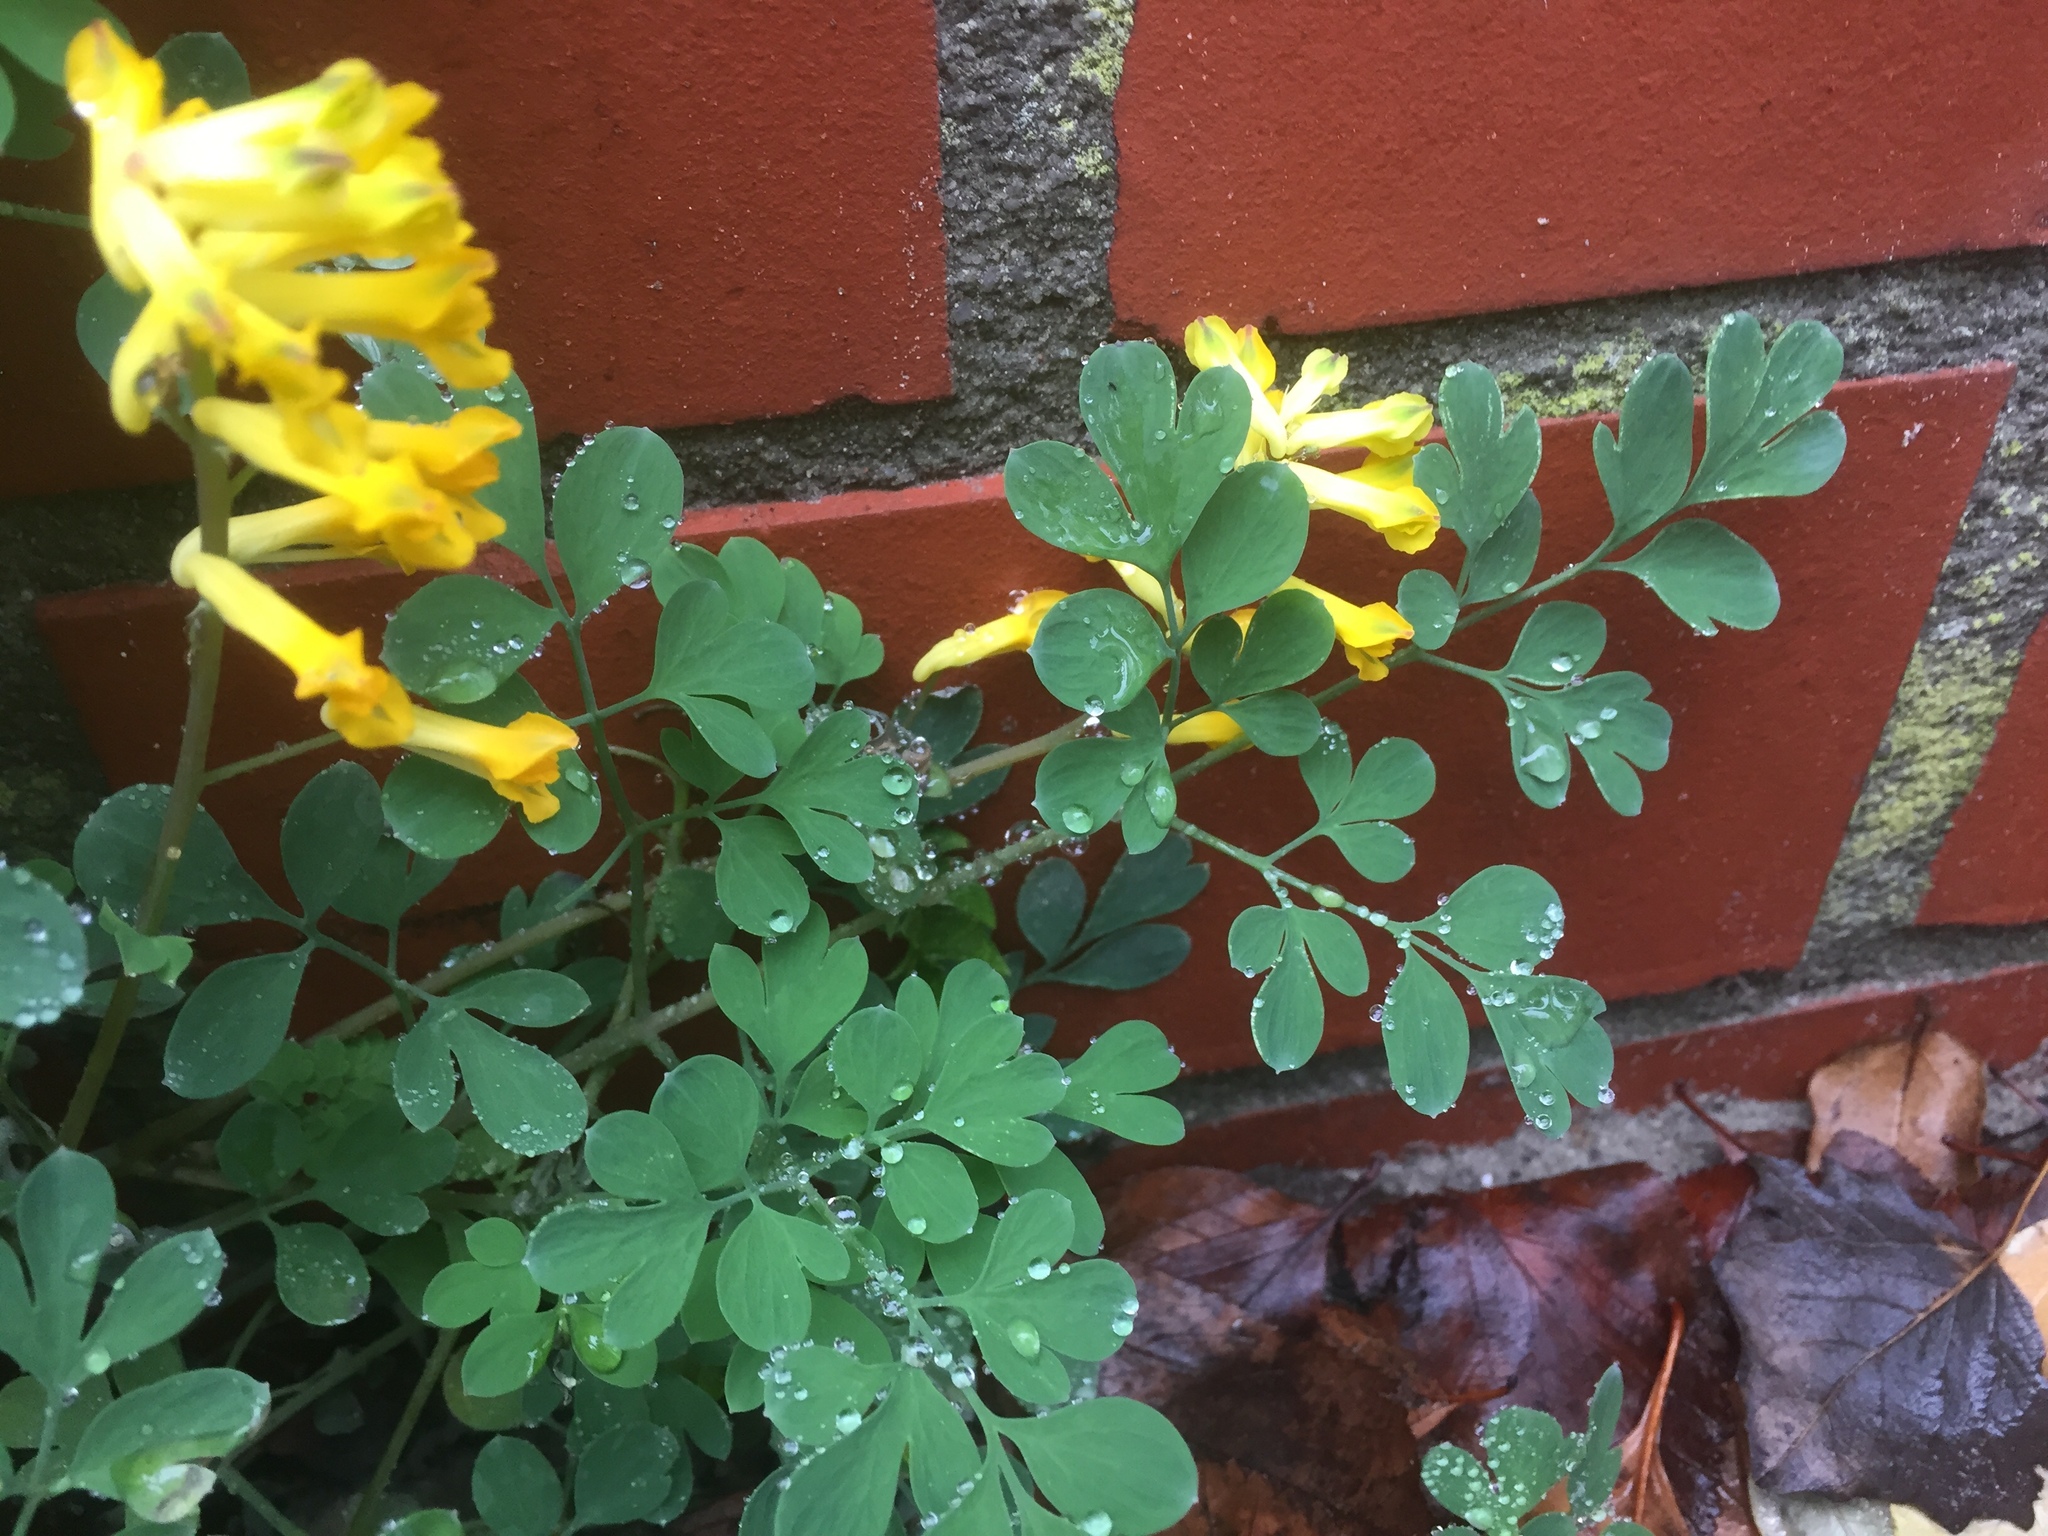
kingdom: Plantae
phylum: Tracheophyta
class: Magnoliopsida
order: Ranunculales
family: Papaveraceae
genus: Pseudofumaria
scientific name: Pseudofumaria lutea
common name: Yellow corydalis
